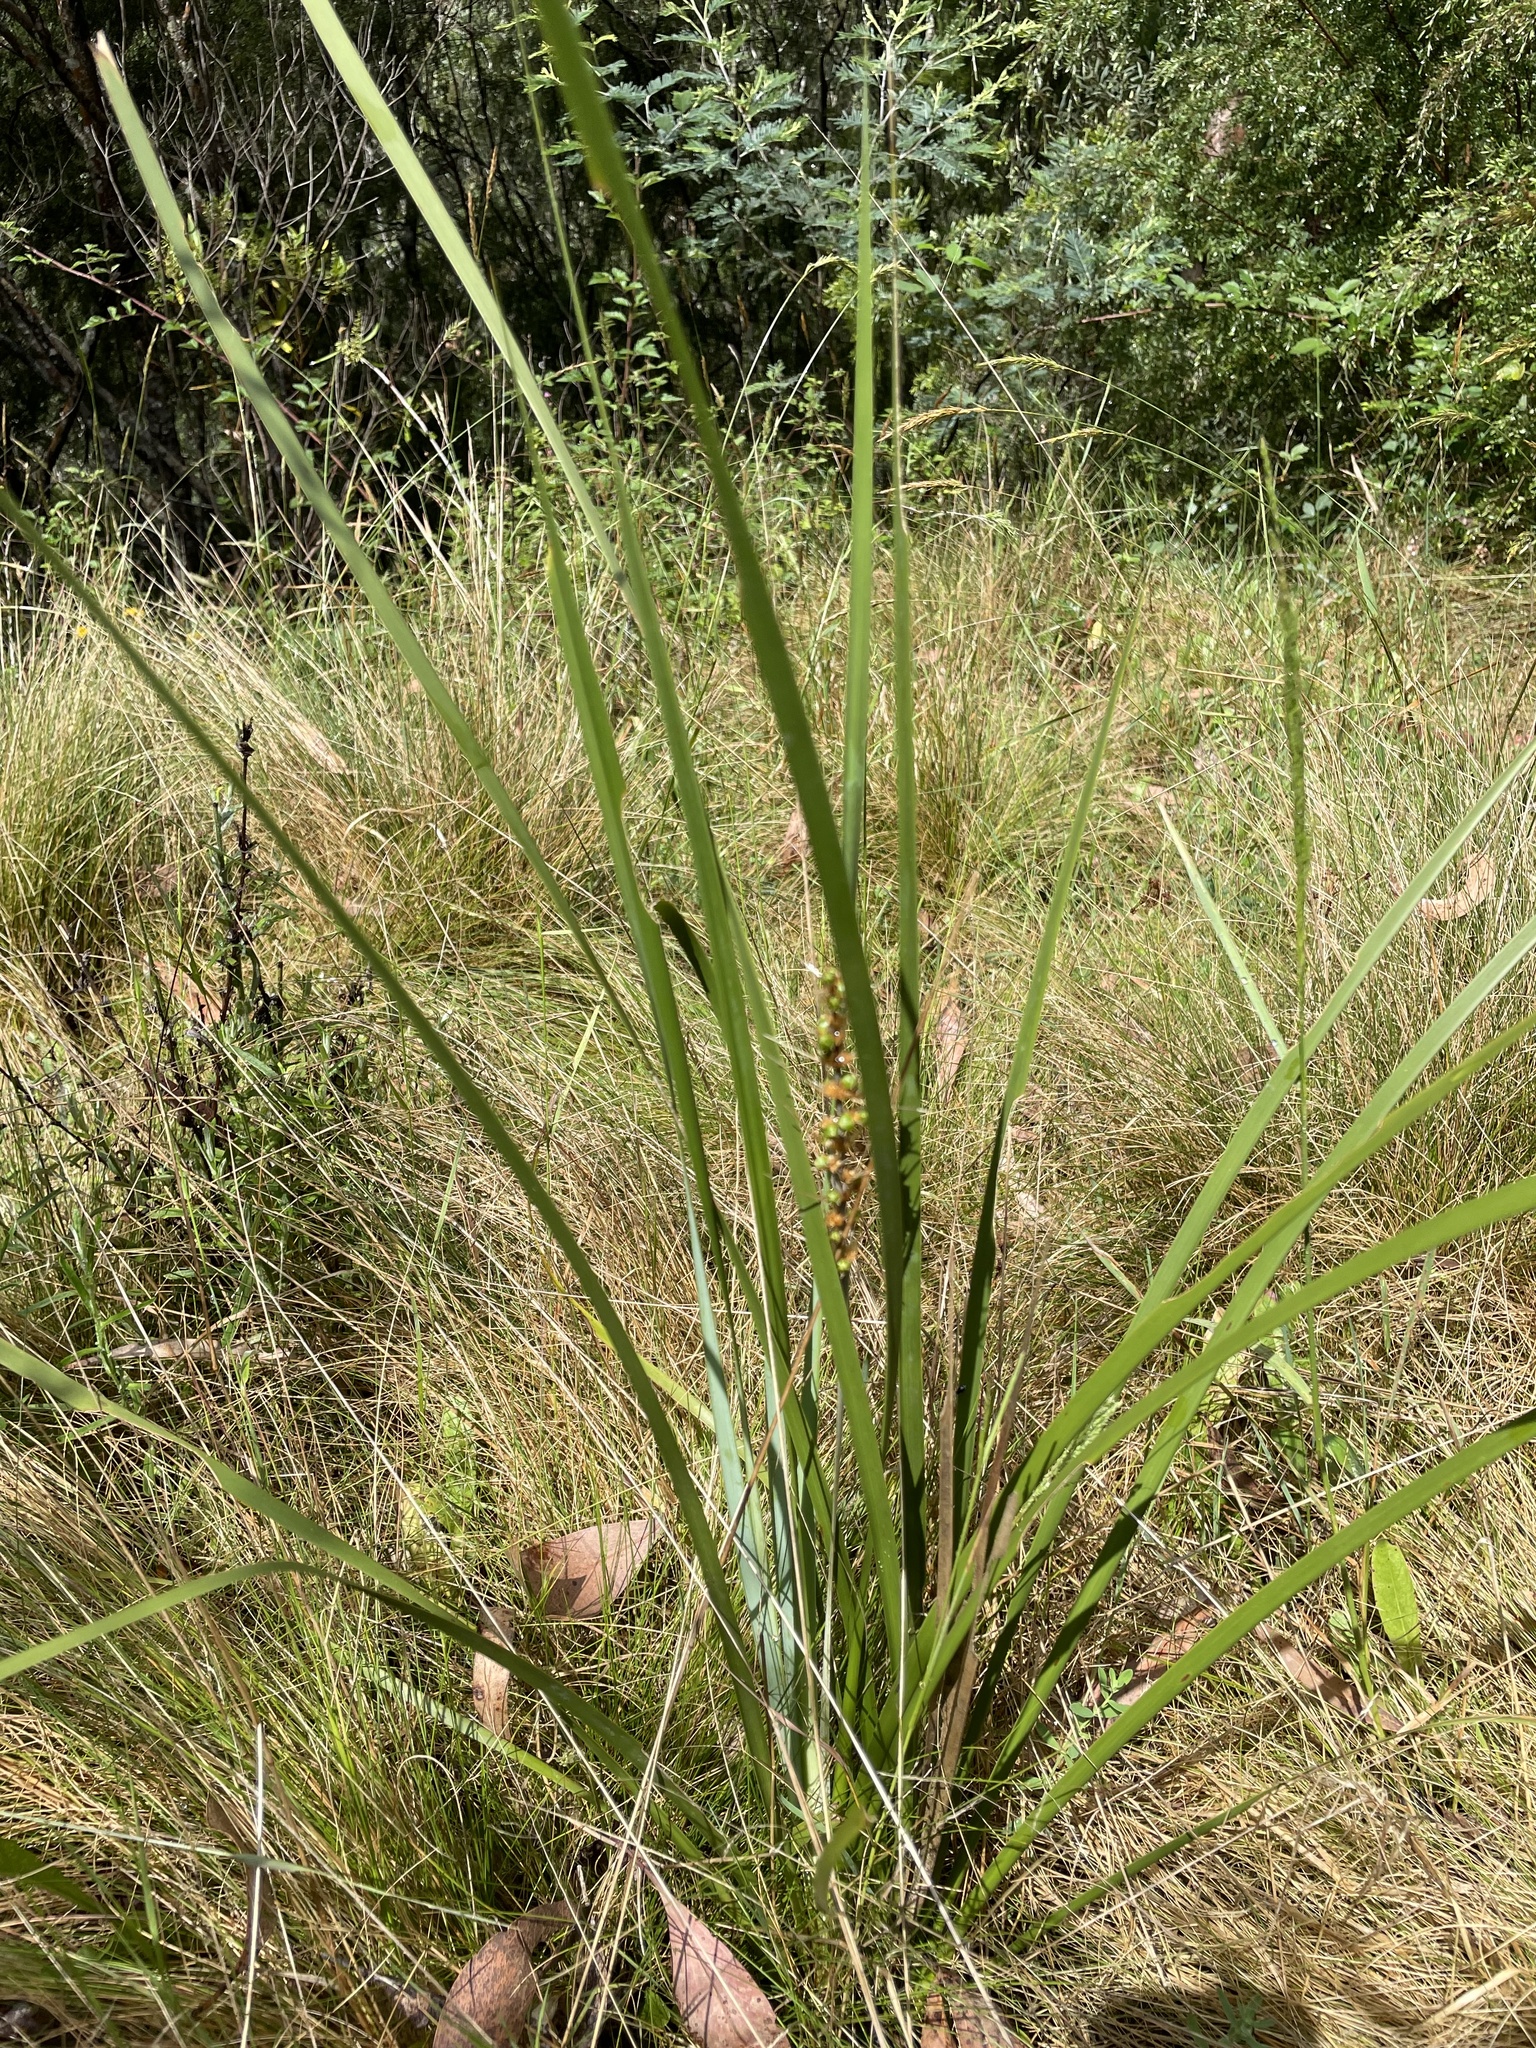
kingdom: Plantae
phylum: Tracheophyta
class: Liliopsida
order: Asparagales
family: Asparagaceae
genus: Lomandra
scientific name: Lomandra longifolia
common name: Longleaf mat-rush
